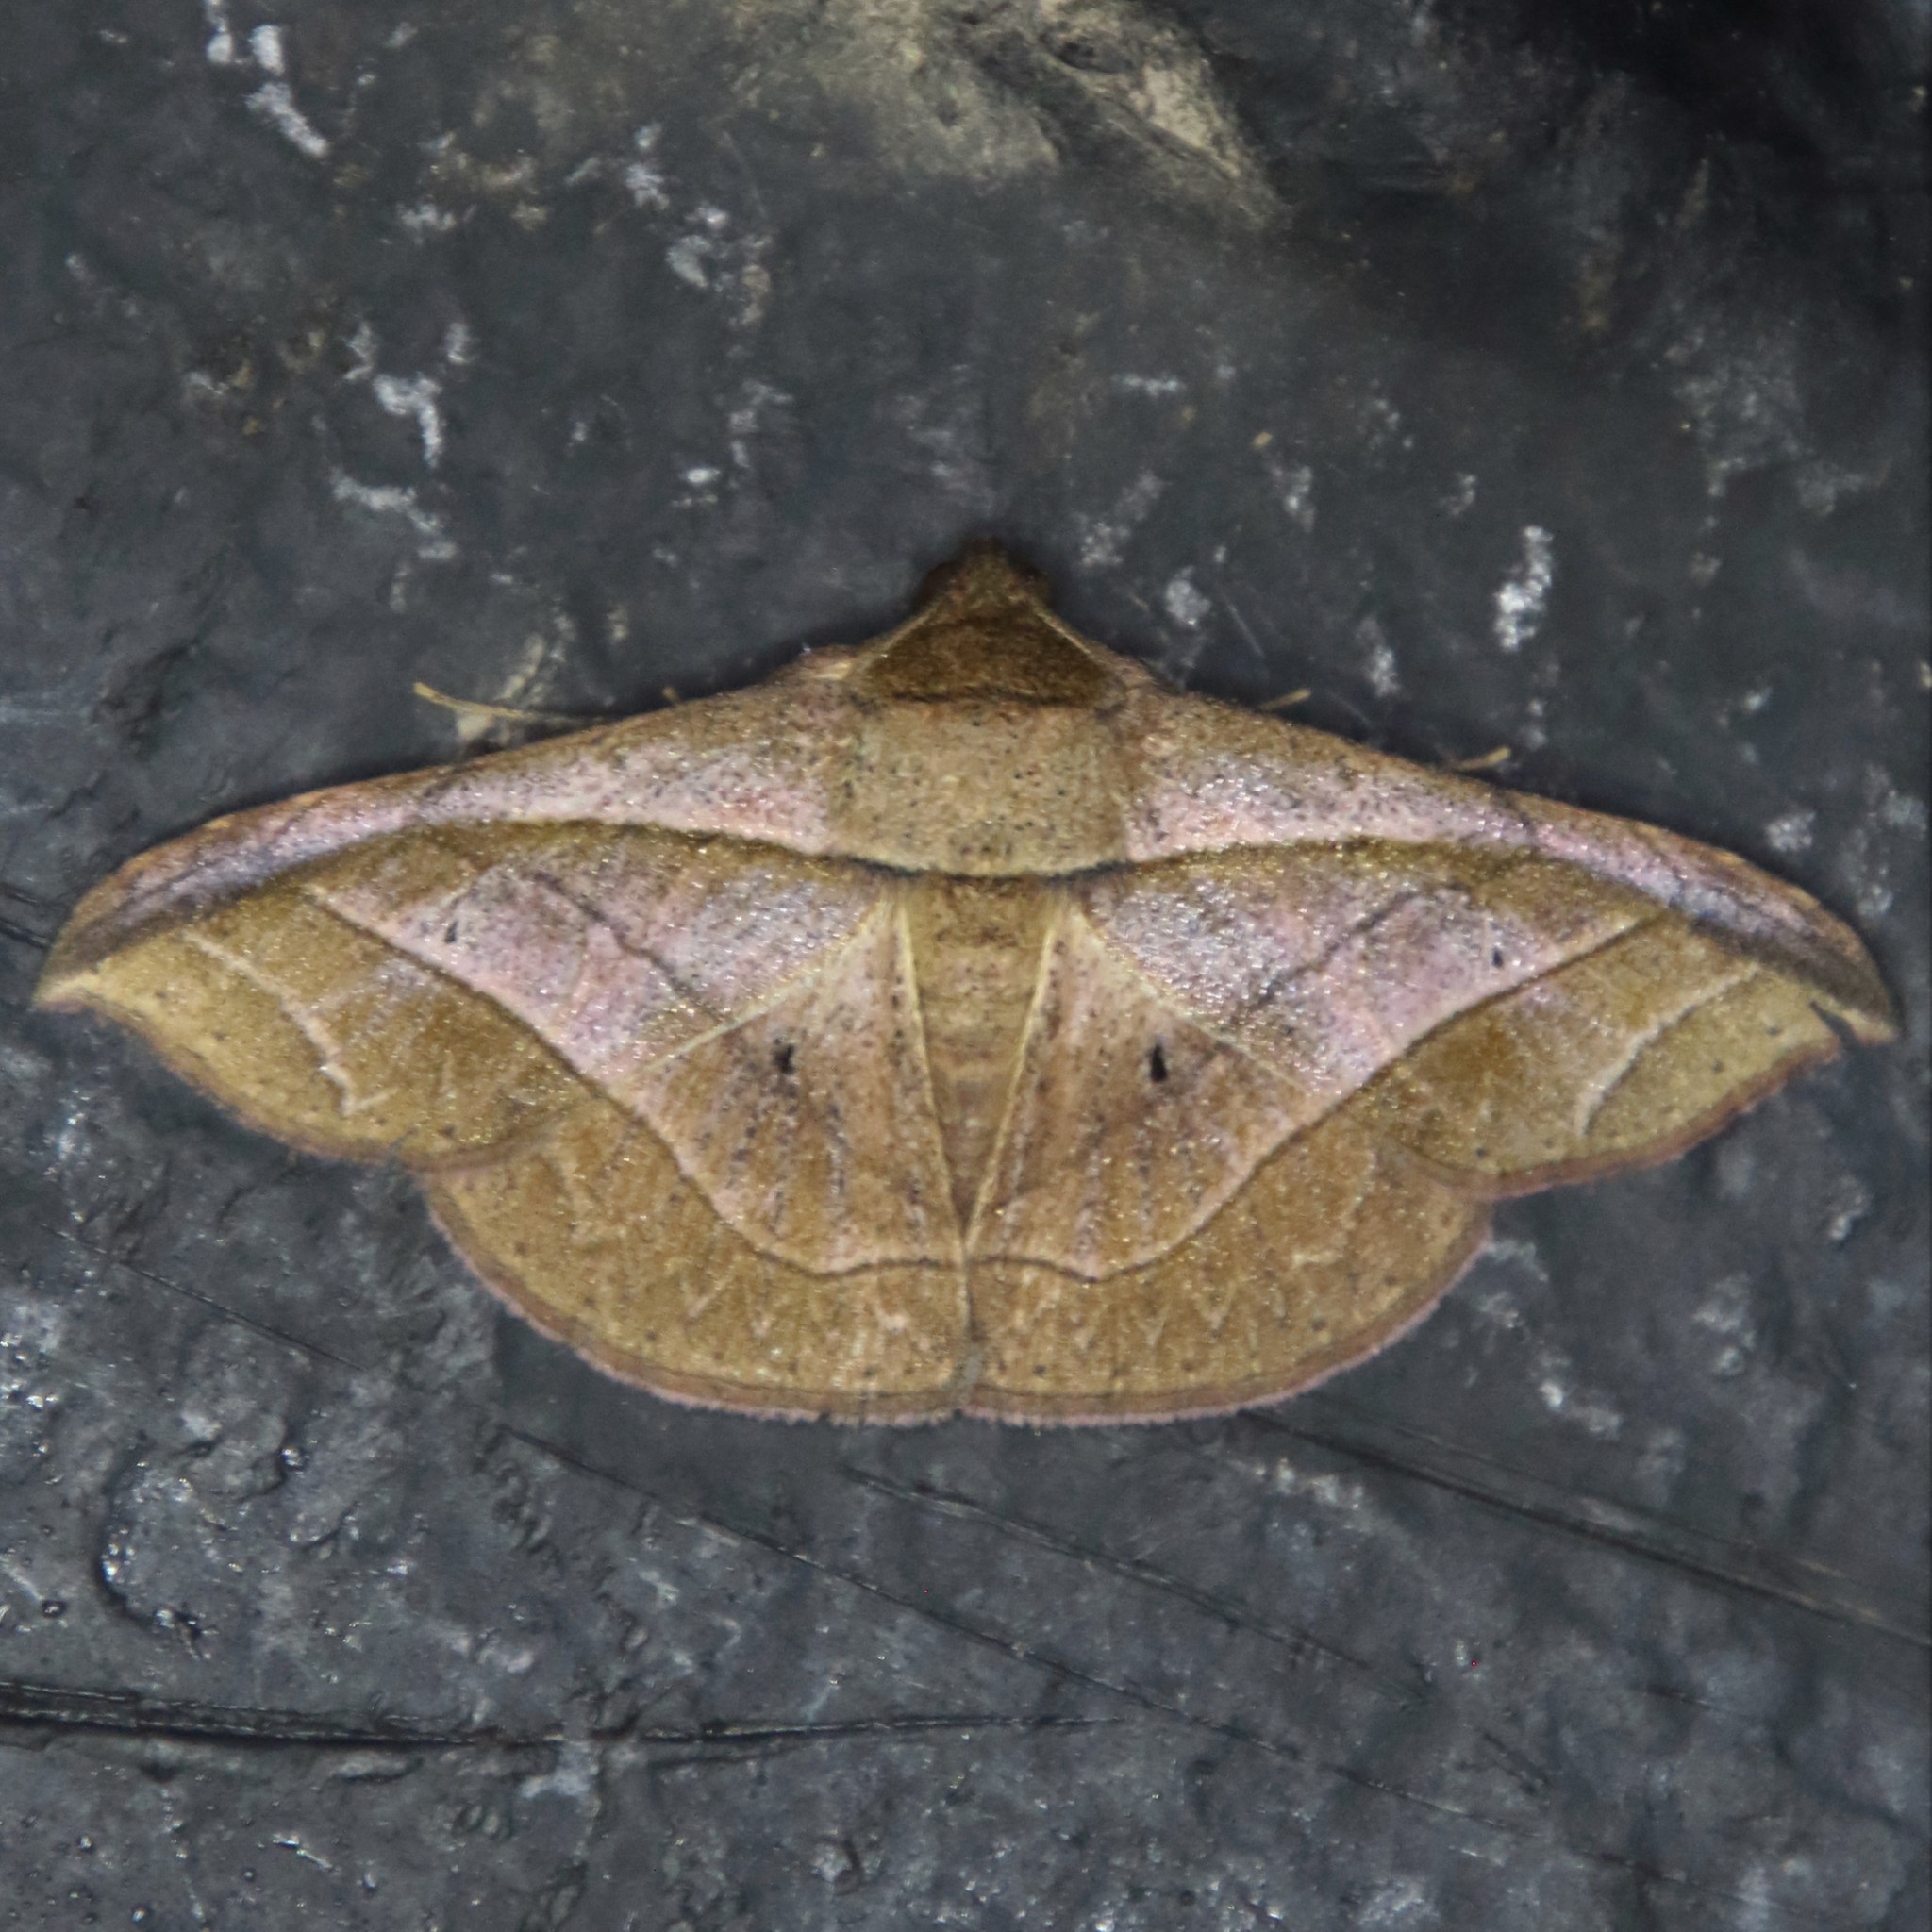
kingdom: Animalia
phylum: Arthropoda
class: Insecta
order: Lepidoptera
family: Erebidae
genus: Tiruvaca
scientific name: Tiruvaca subcostalis
